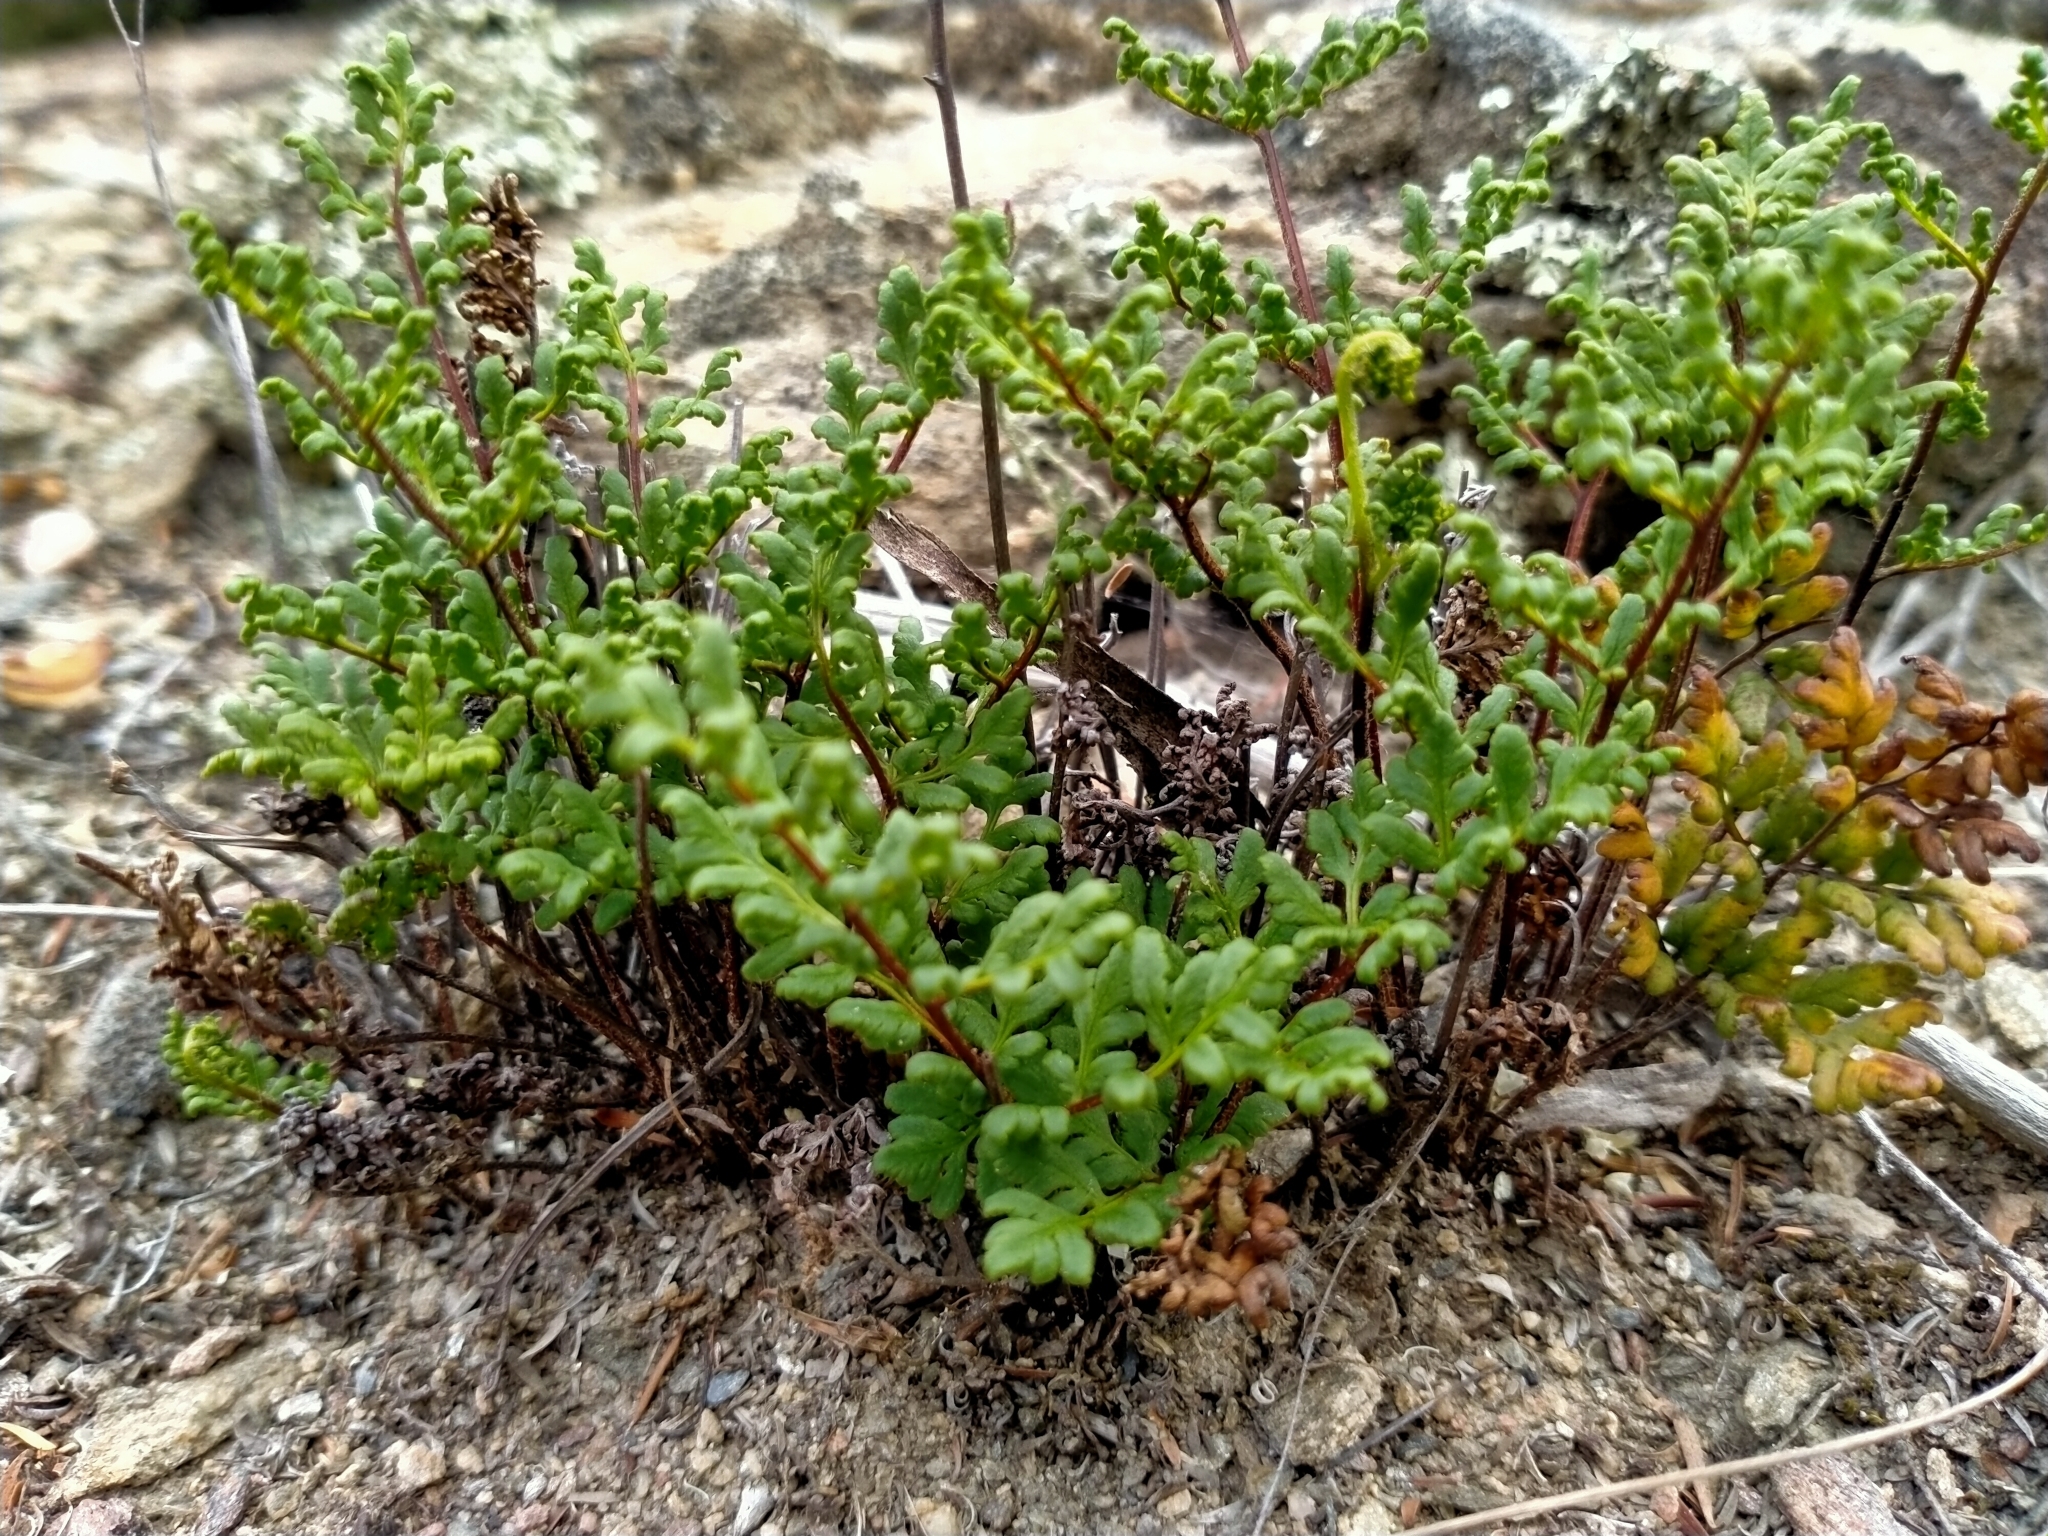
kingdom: Plantae
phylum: Tracheophyta
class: Polypodiopsida
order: Polypodiales
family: Pteridaceae
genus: Cheilanthes
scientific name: Cheilanthes sieberi
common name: Mulga fern
